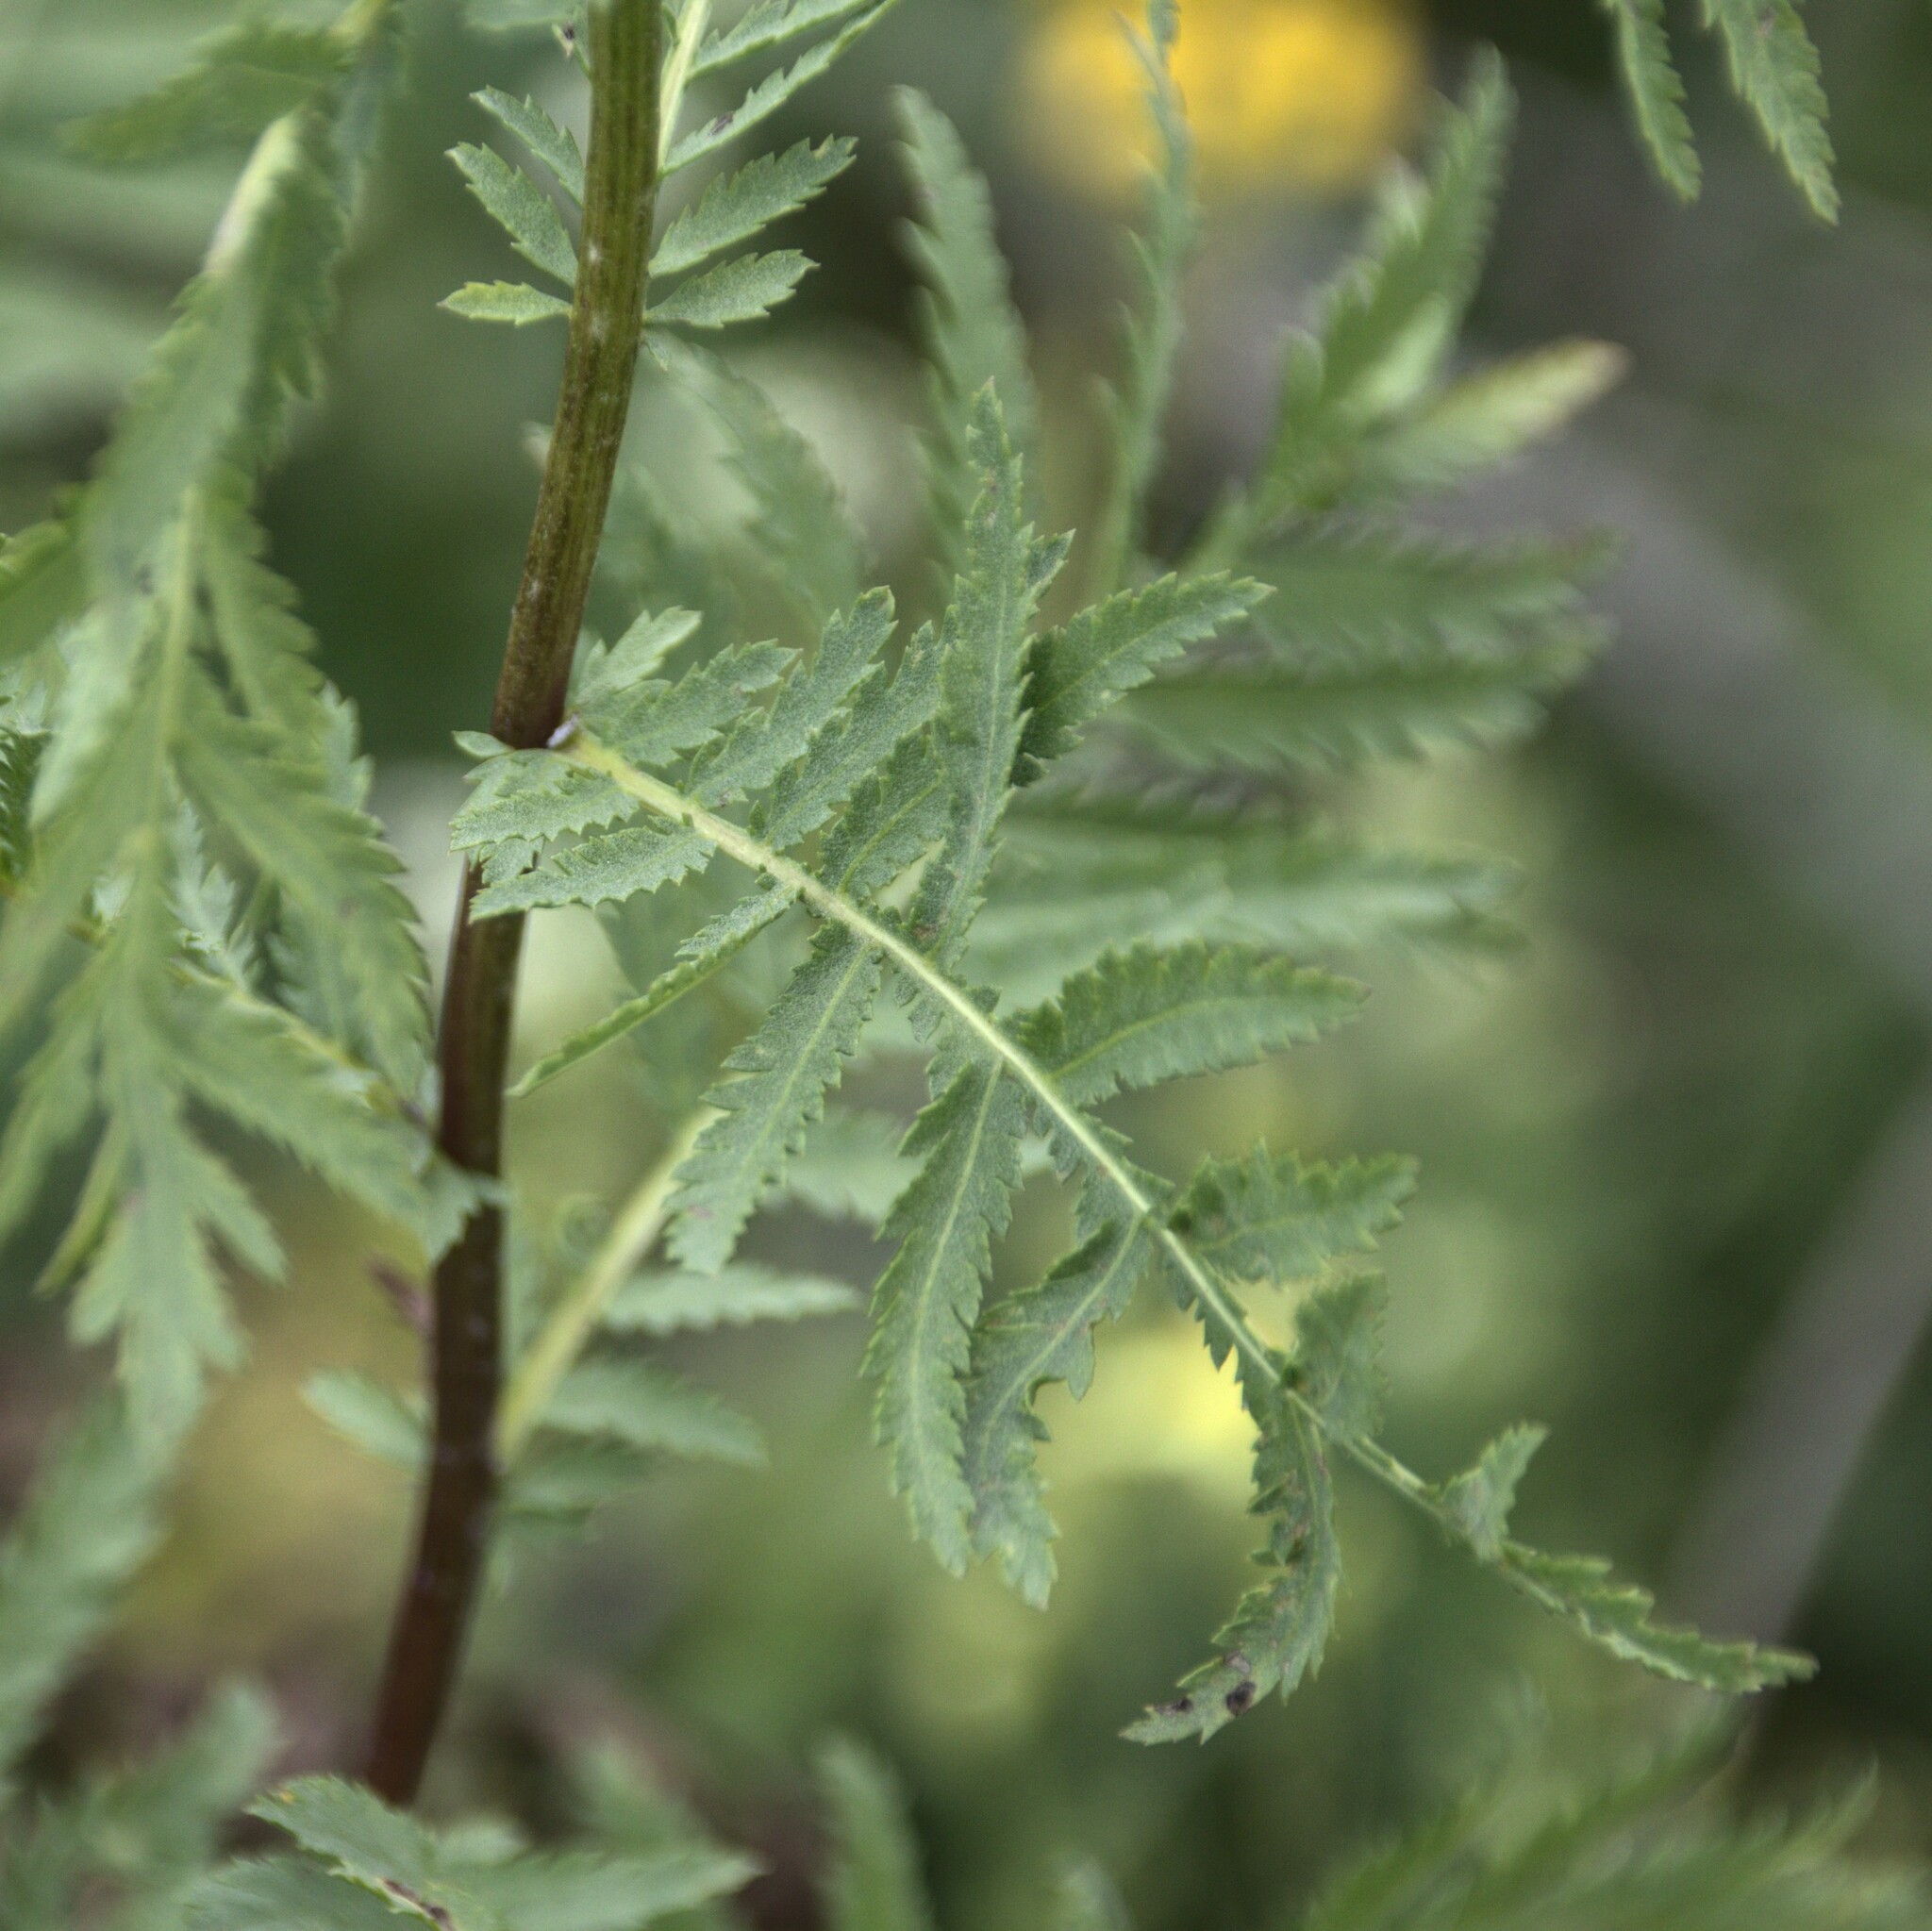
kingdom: Plantae
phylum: Tracheophyta
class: Magnoliopsida
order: Asterales
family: Asteraceae
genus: Tanacetum
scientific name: Tanacetum vulgare
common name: Common tansy
